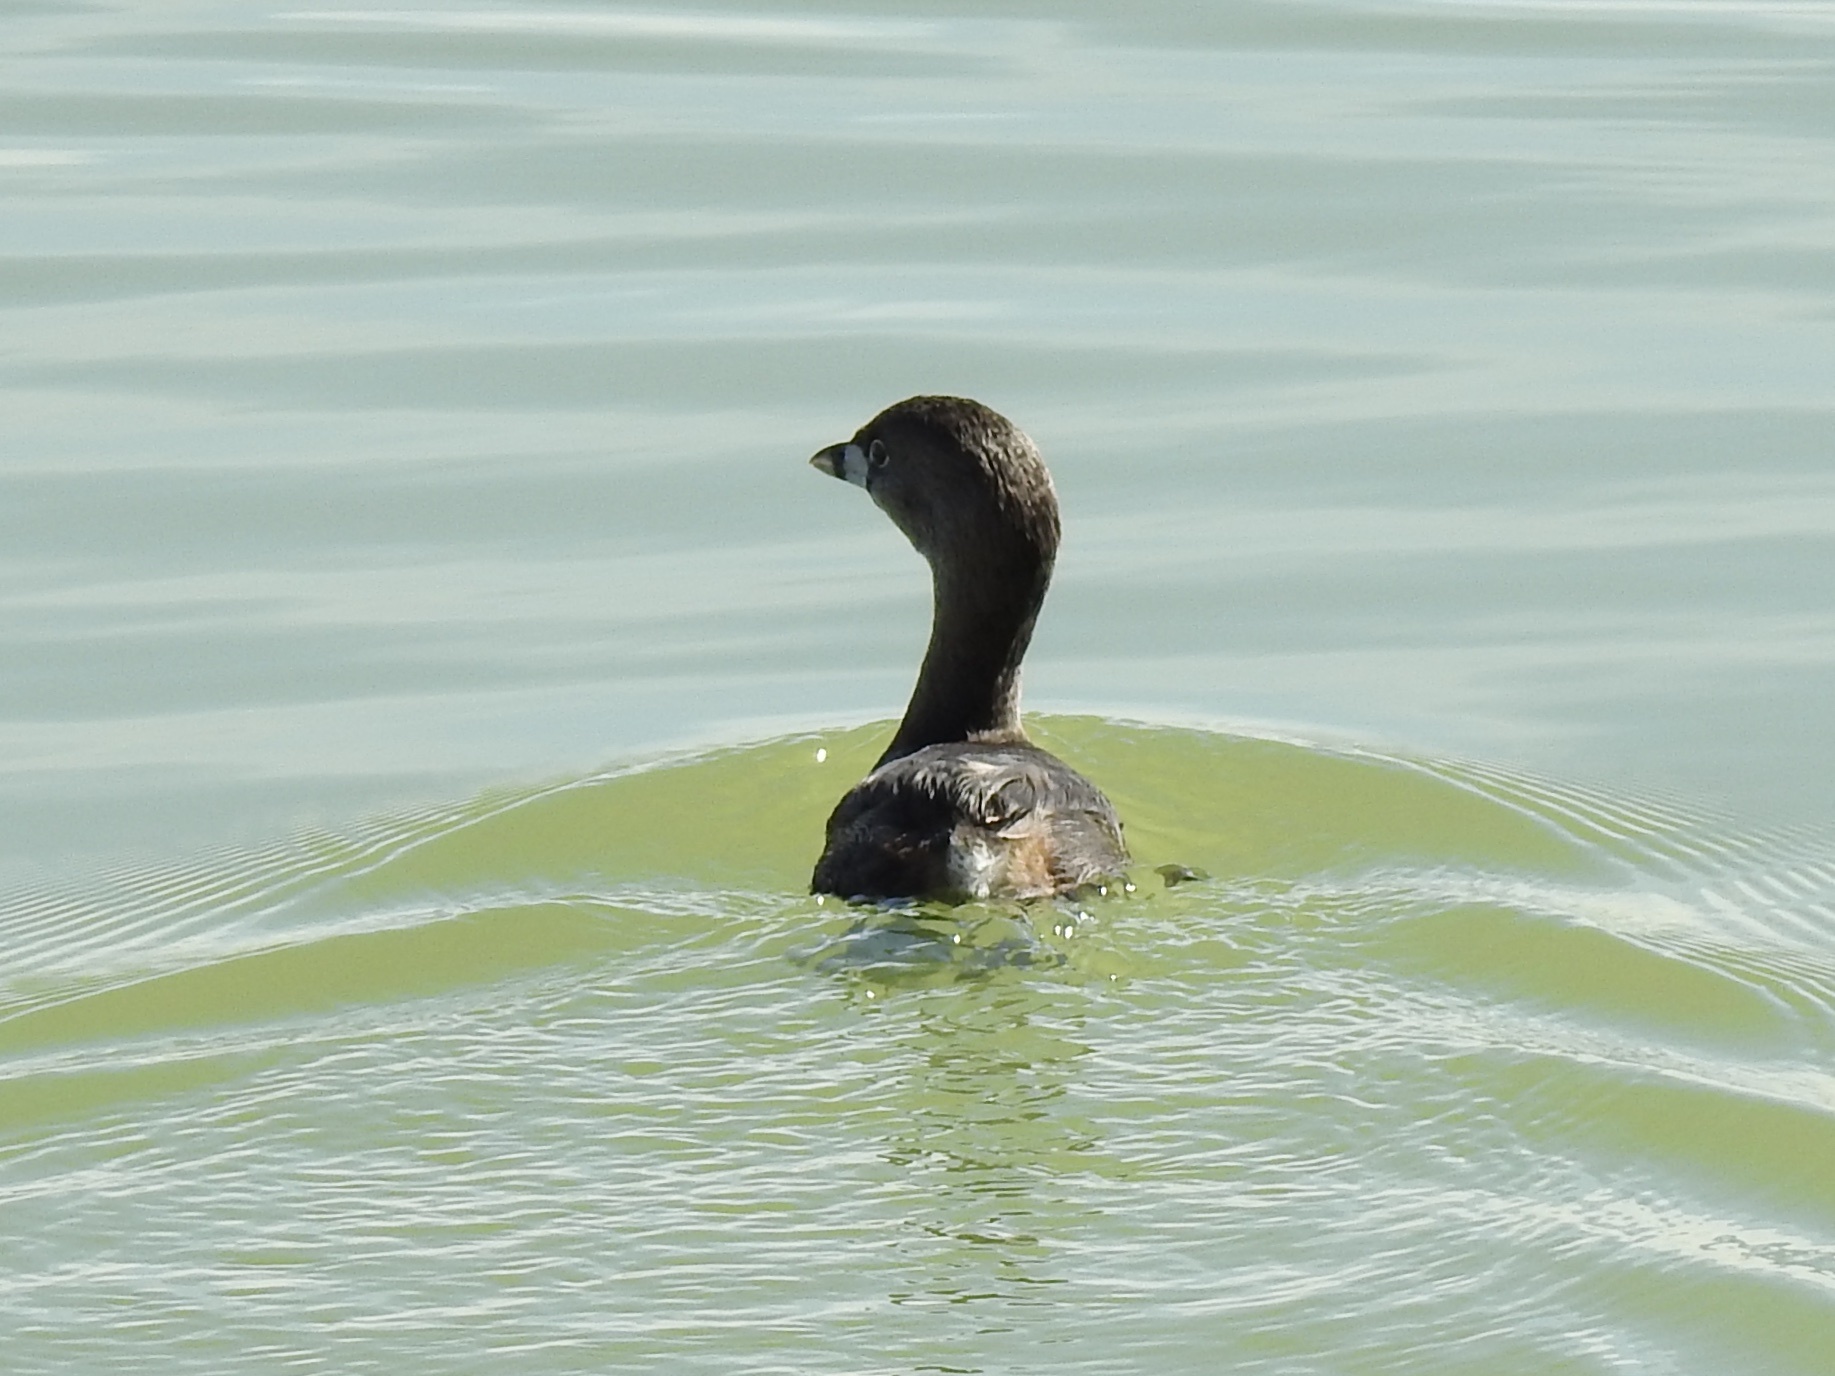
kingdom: Animalia
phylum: Chordata
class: Aves
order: Podicipediformes
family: Podicipedidae
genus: Podilymbus
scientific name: Podilymbus podiceps
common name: Pied-billed grebe
